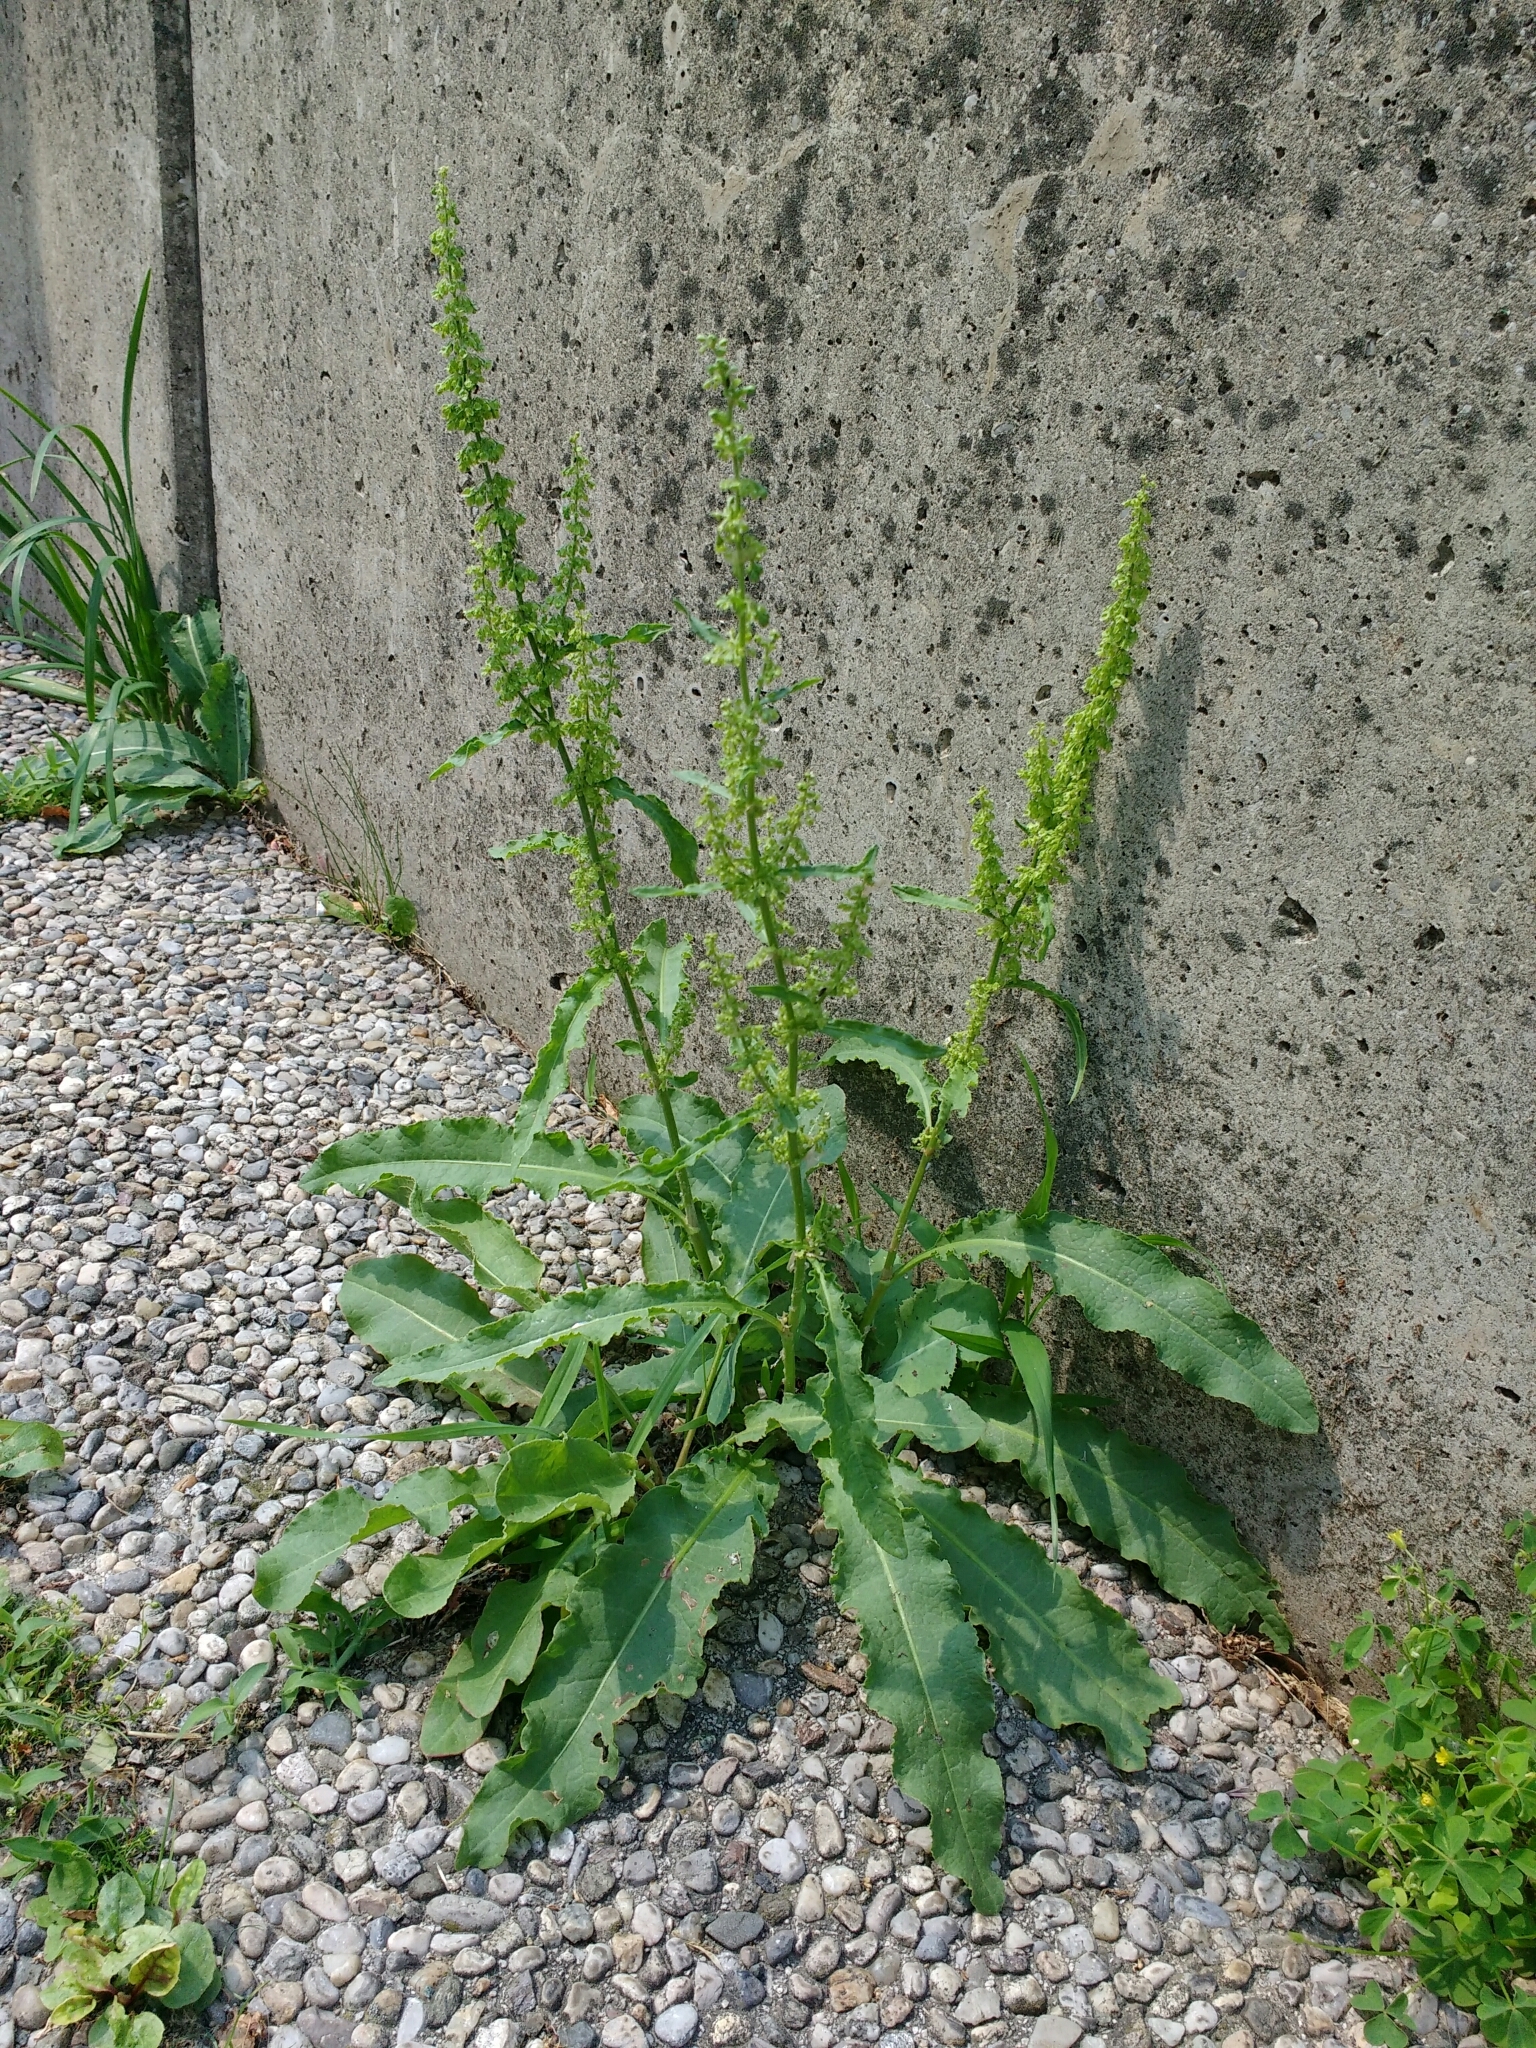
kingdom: Plantae
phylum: Tracheophyta
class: Magnoliopsida
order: Caryophyllales
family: Polygonaceae
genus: Rumex
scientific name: Rumex crispus
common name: Curled dock
